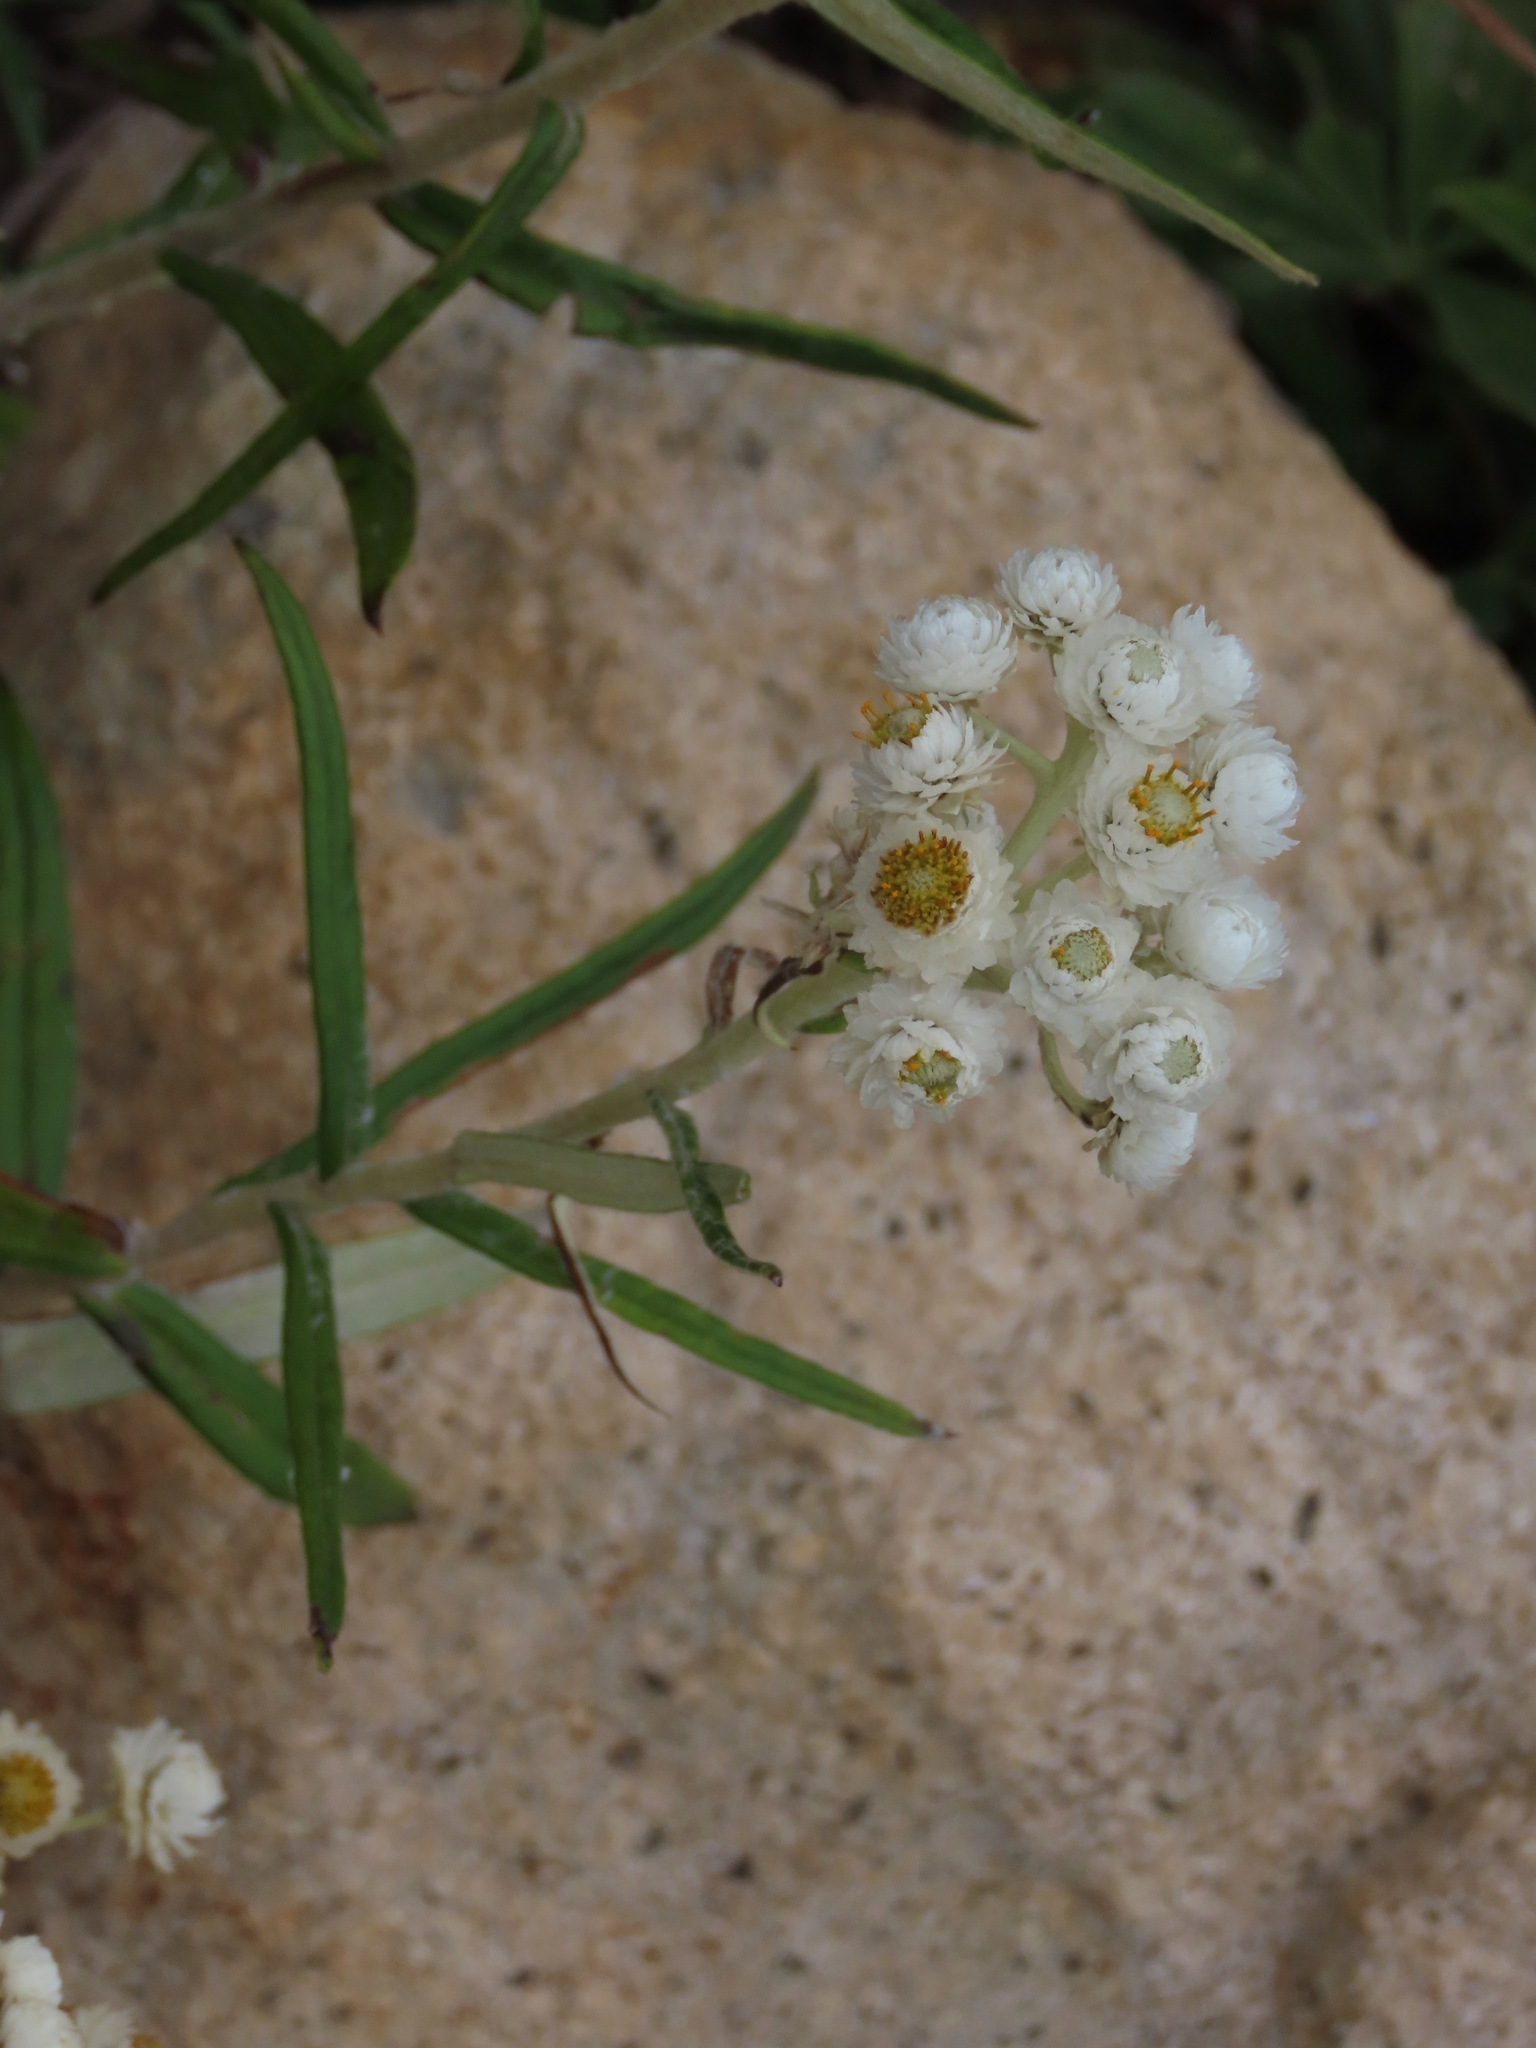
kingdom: Plantae
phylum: Tracheophyta
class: Magnoliopsida
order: Asterales
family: Asteraceae
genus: Anaphalis
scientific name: Anaphalis margaritacea
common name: Pearly everlasting
